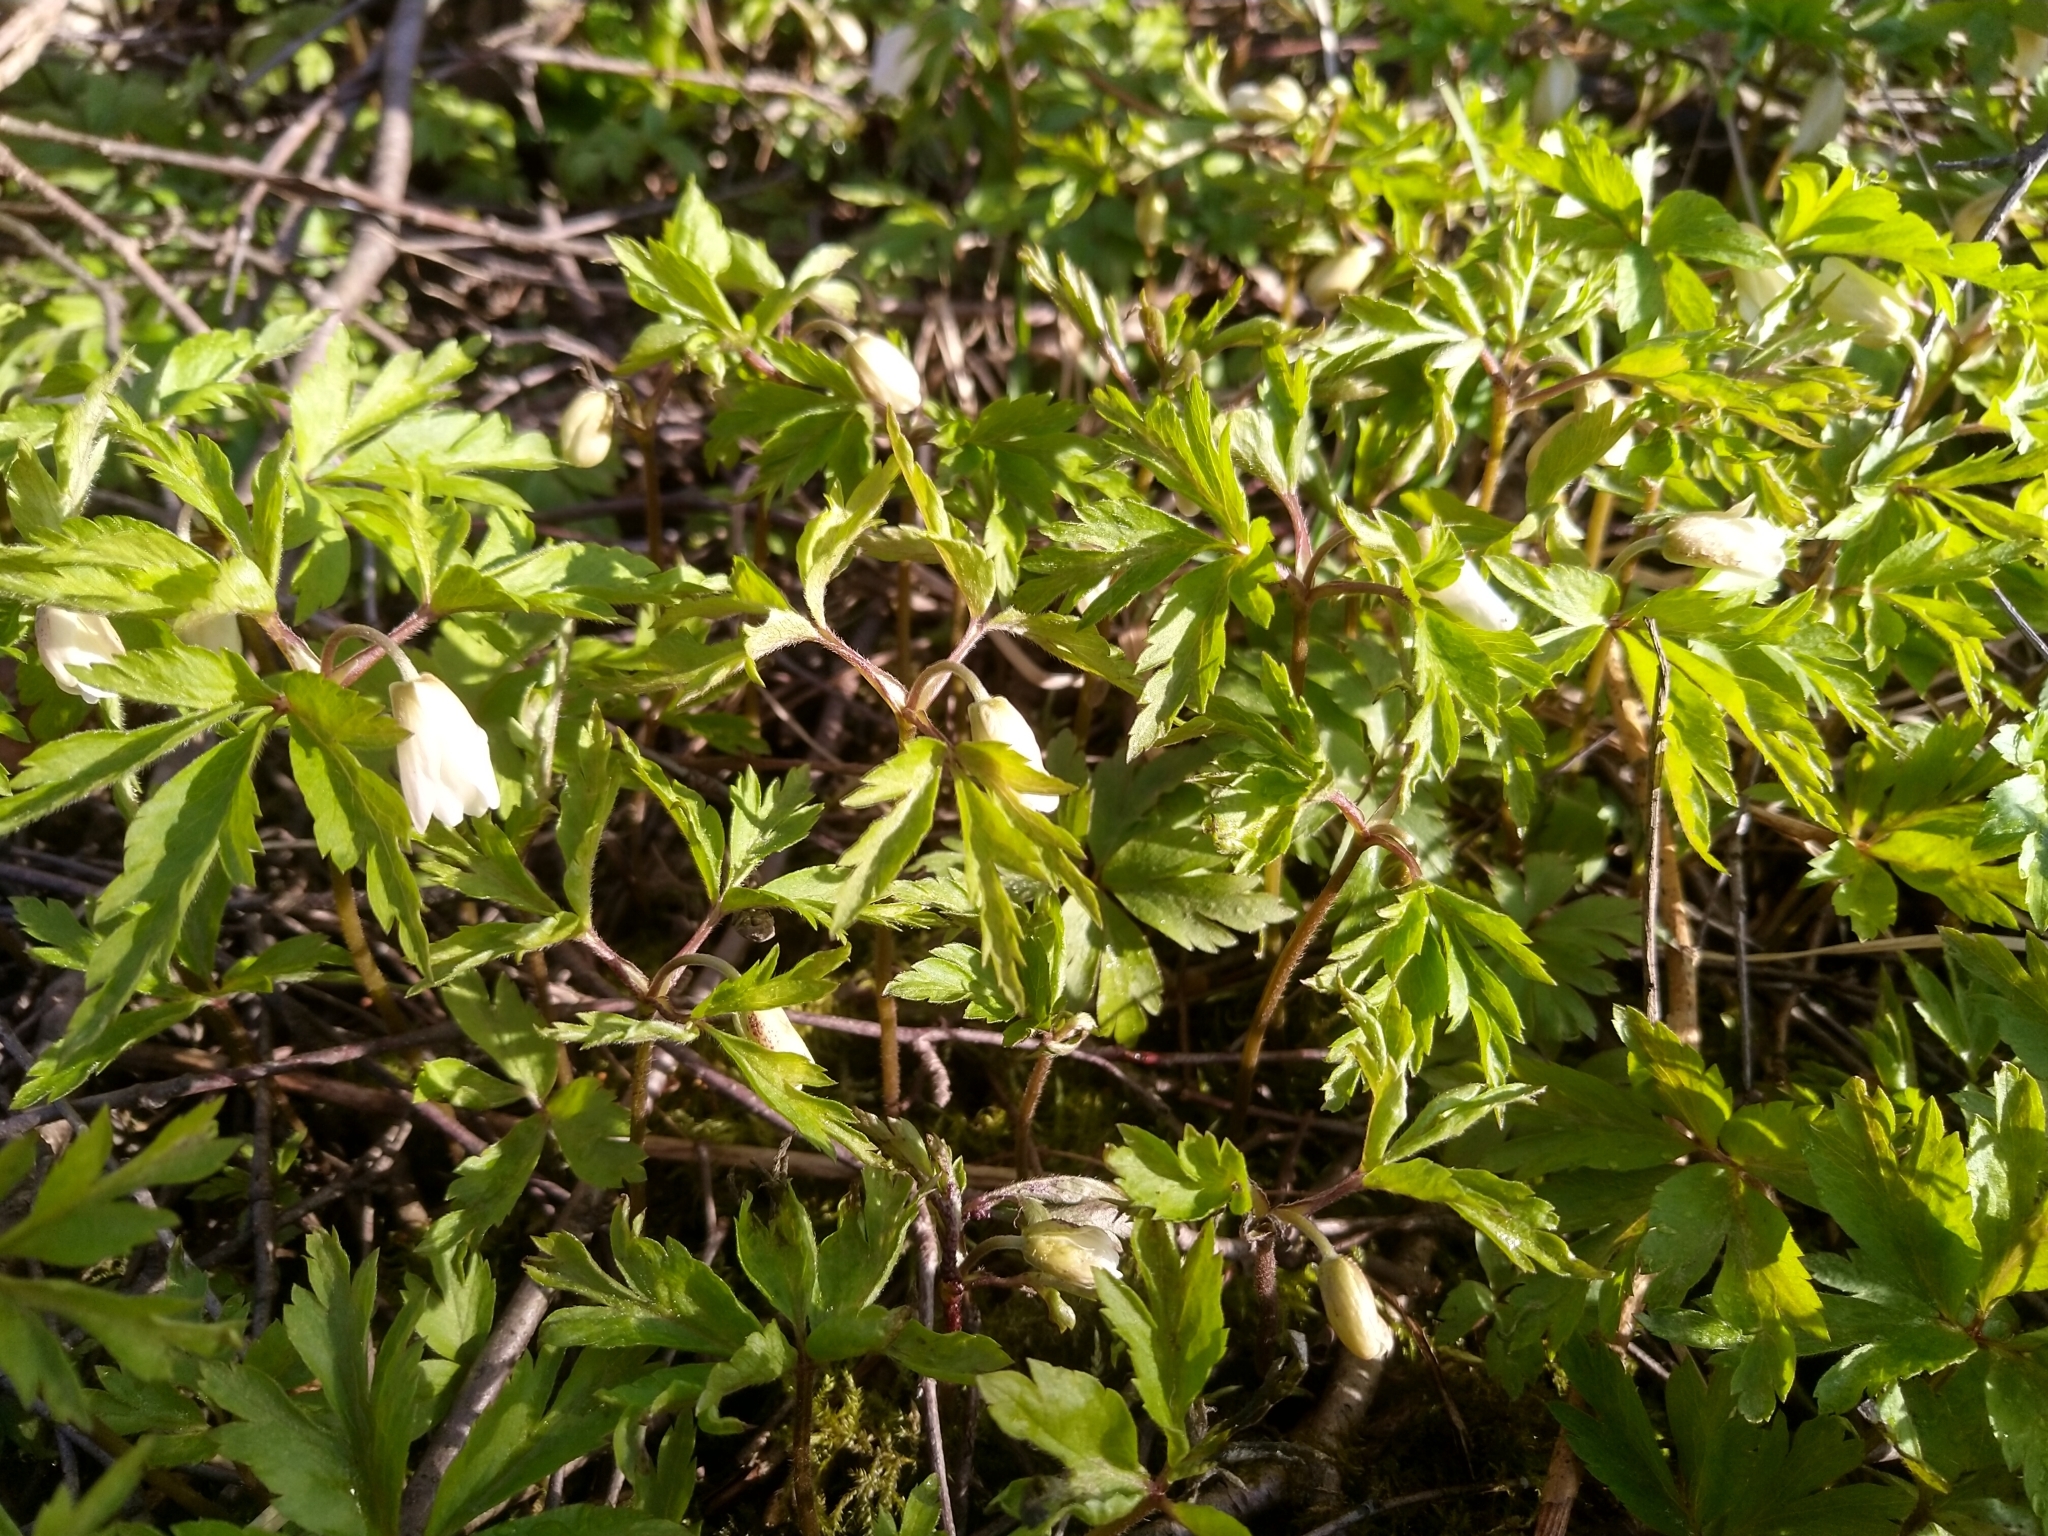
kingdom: Plantae
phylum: Tracheophyta
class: Magnoliopsida
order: Ranunculales
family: Ranunculaceae
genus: Anemone
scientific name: Anemone nemorosa
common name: Wood anemone
